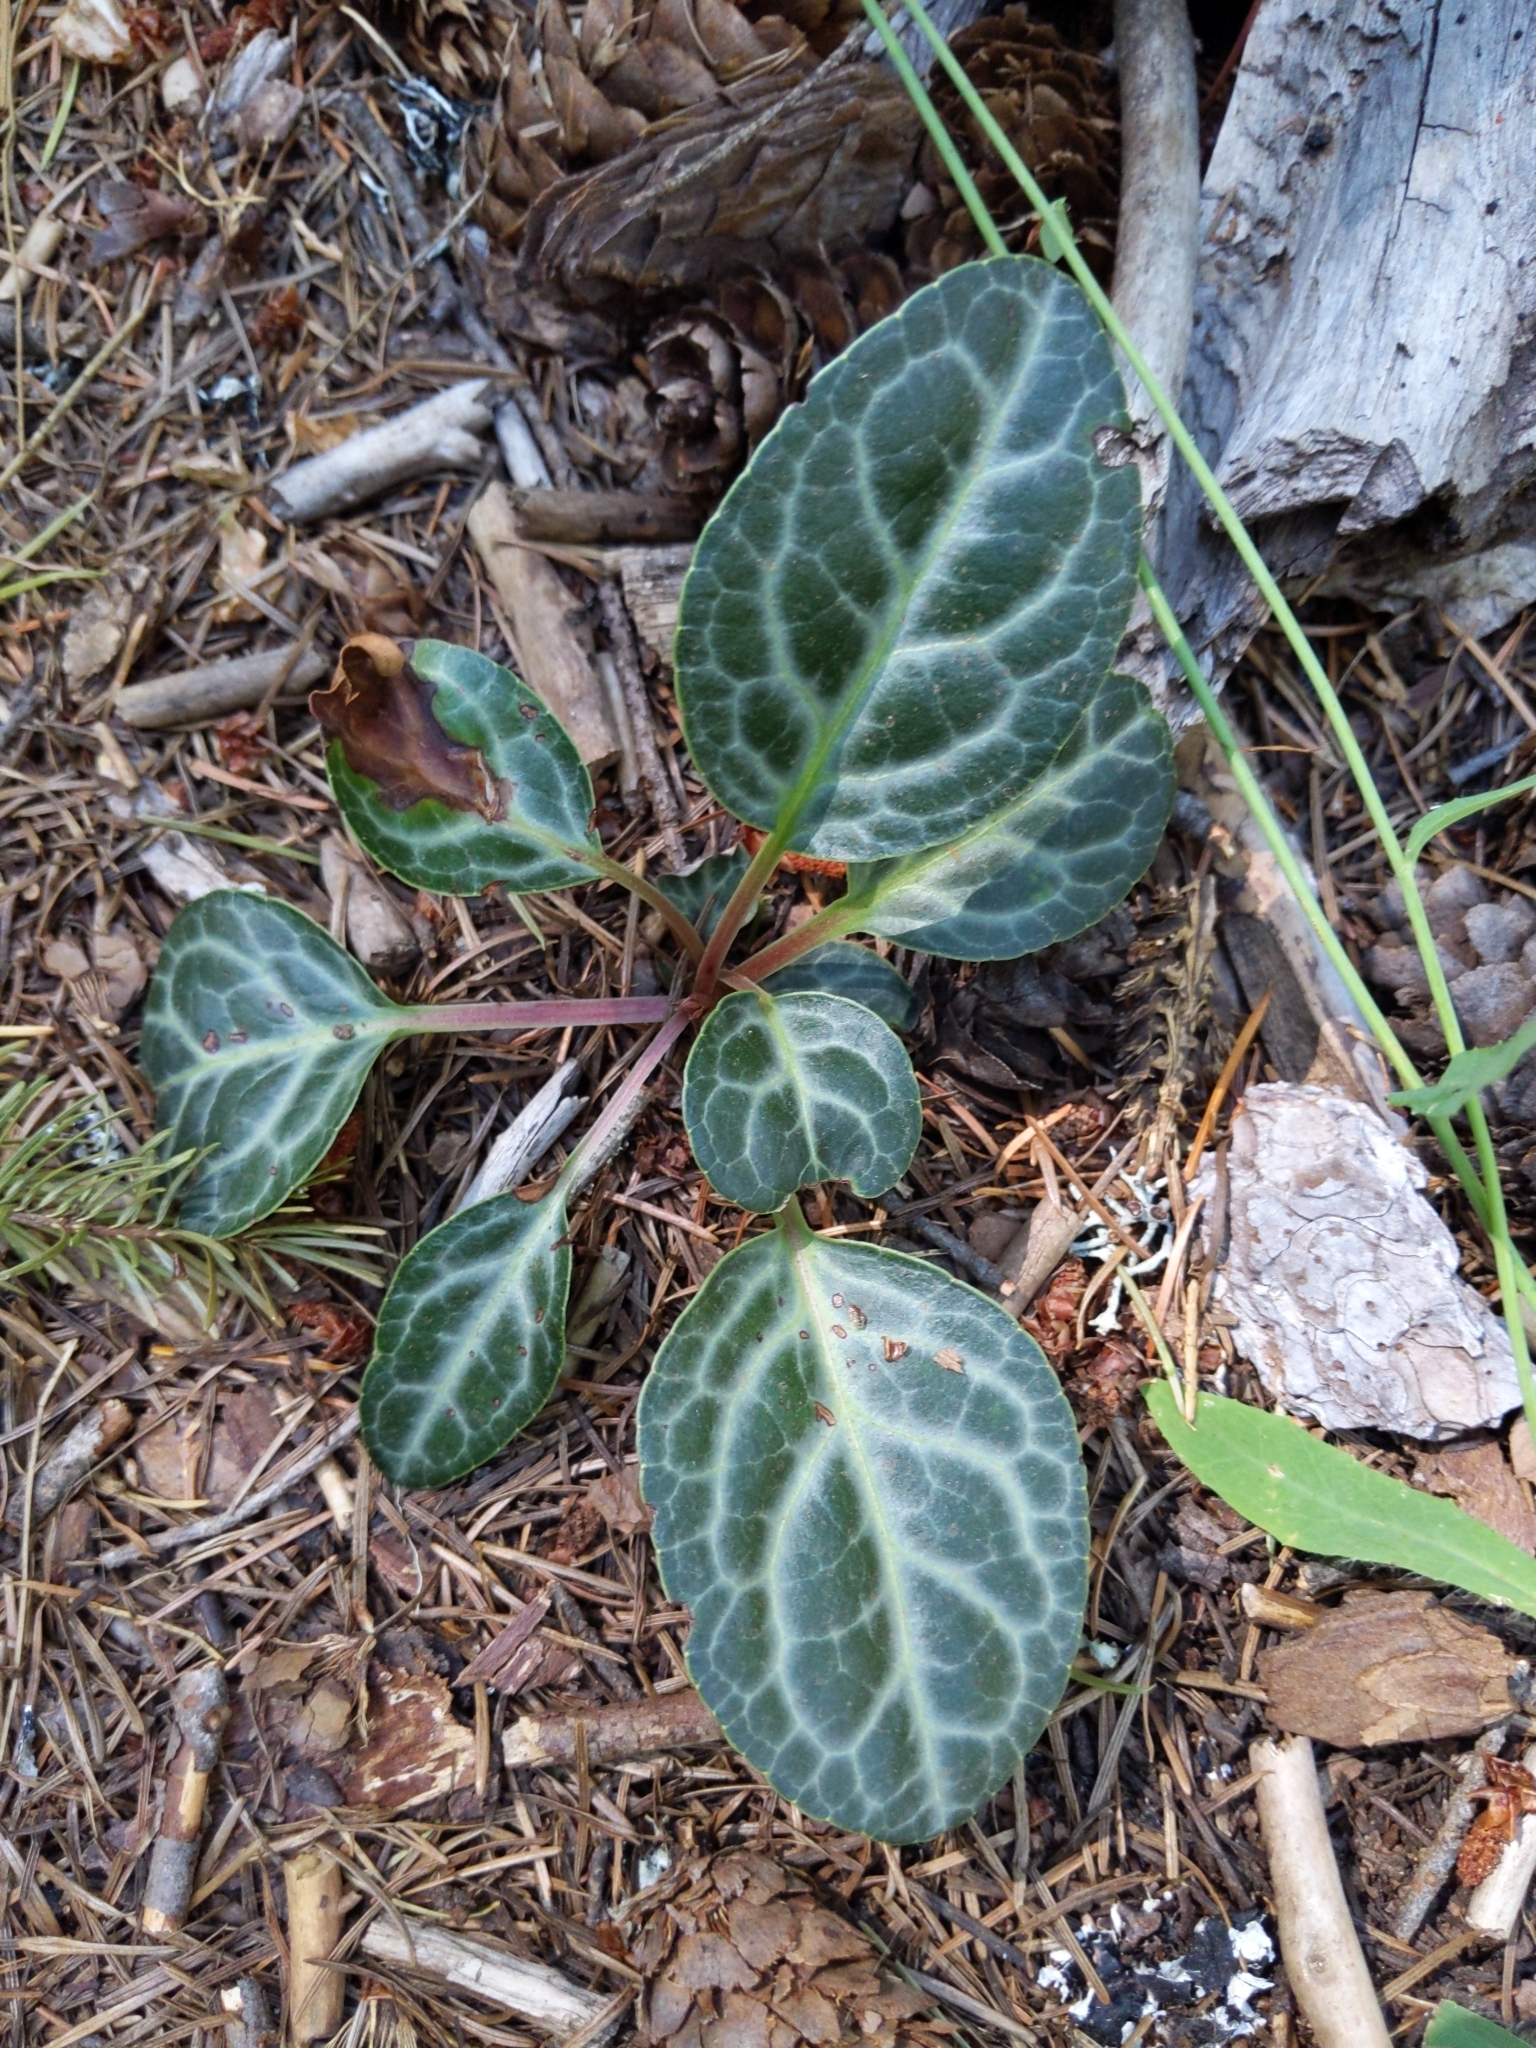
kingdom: Plantae
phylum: Tracheophyta
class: Magnoliopsida
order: Ericales
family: Ericaceae
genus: Pyrola
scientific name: Pyrola picta
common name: White-vein wintergreen
